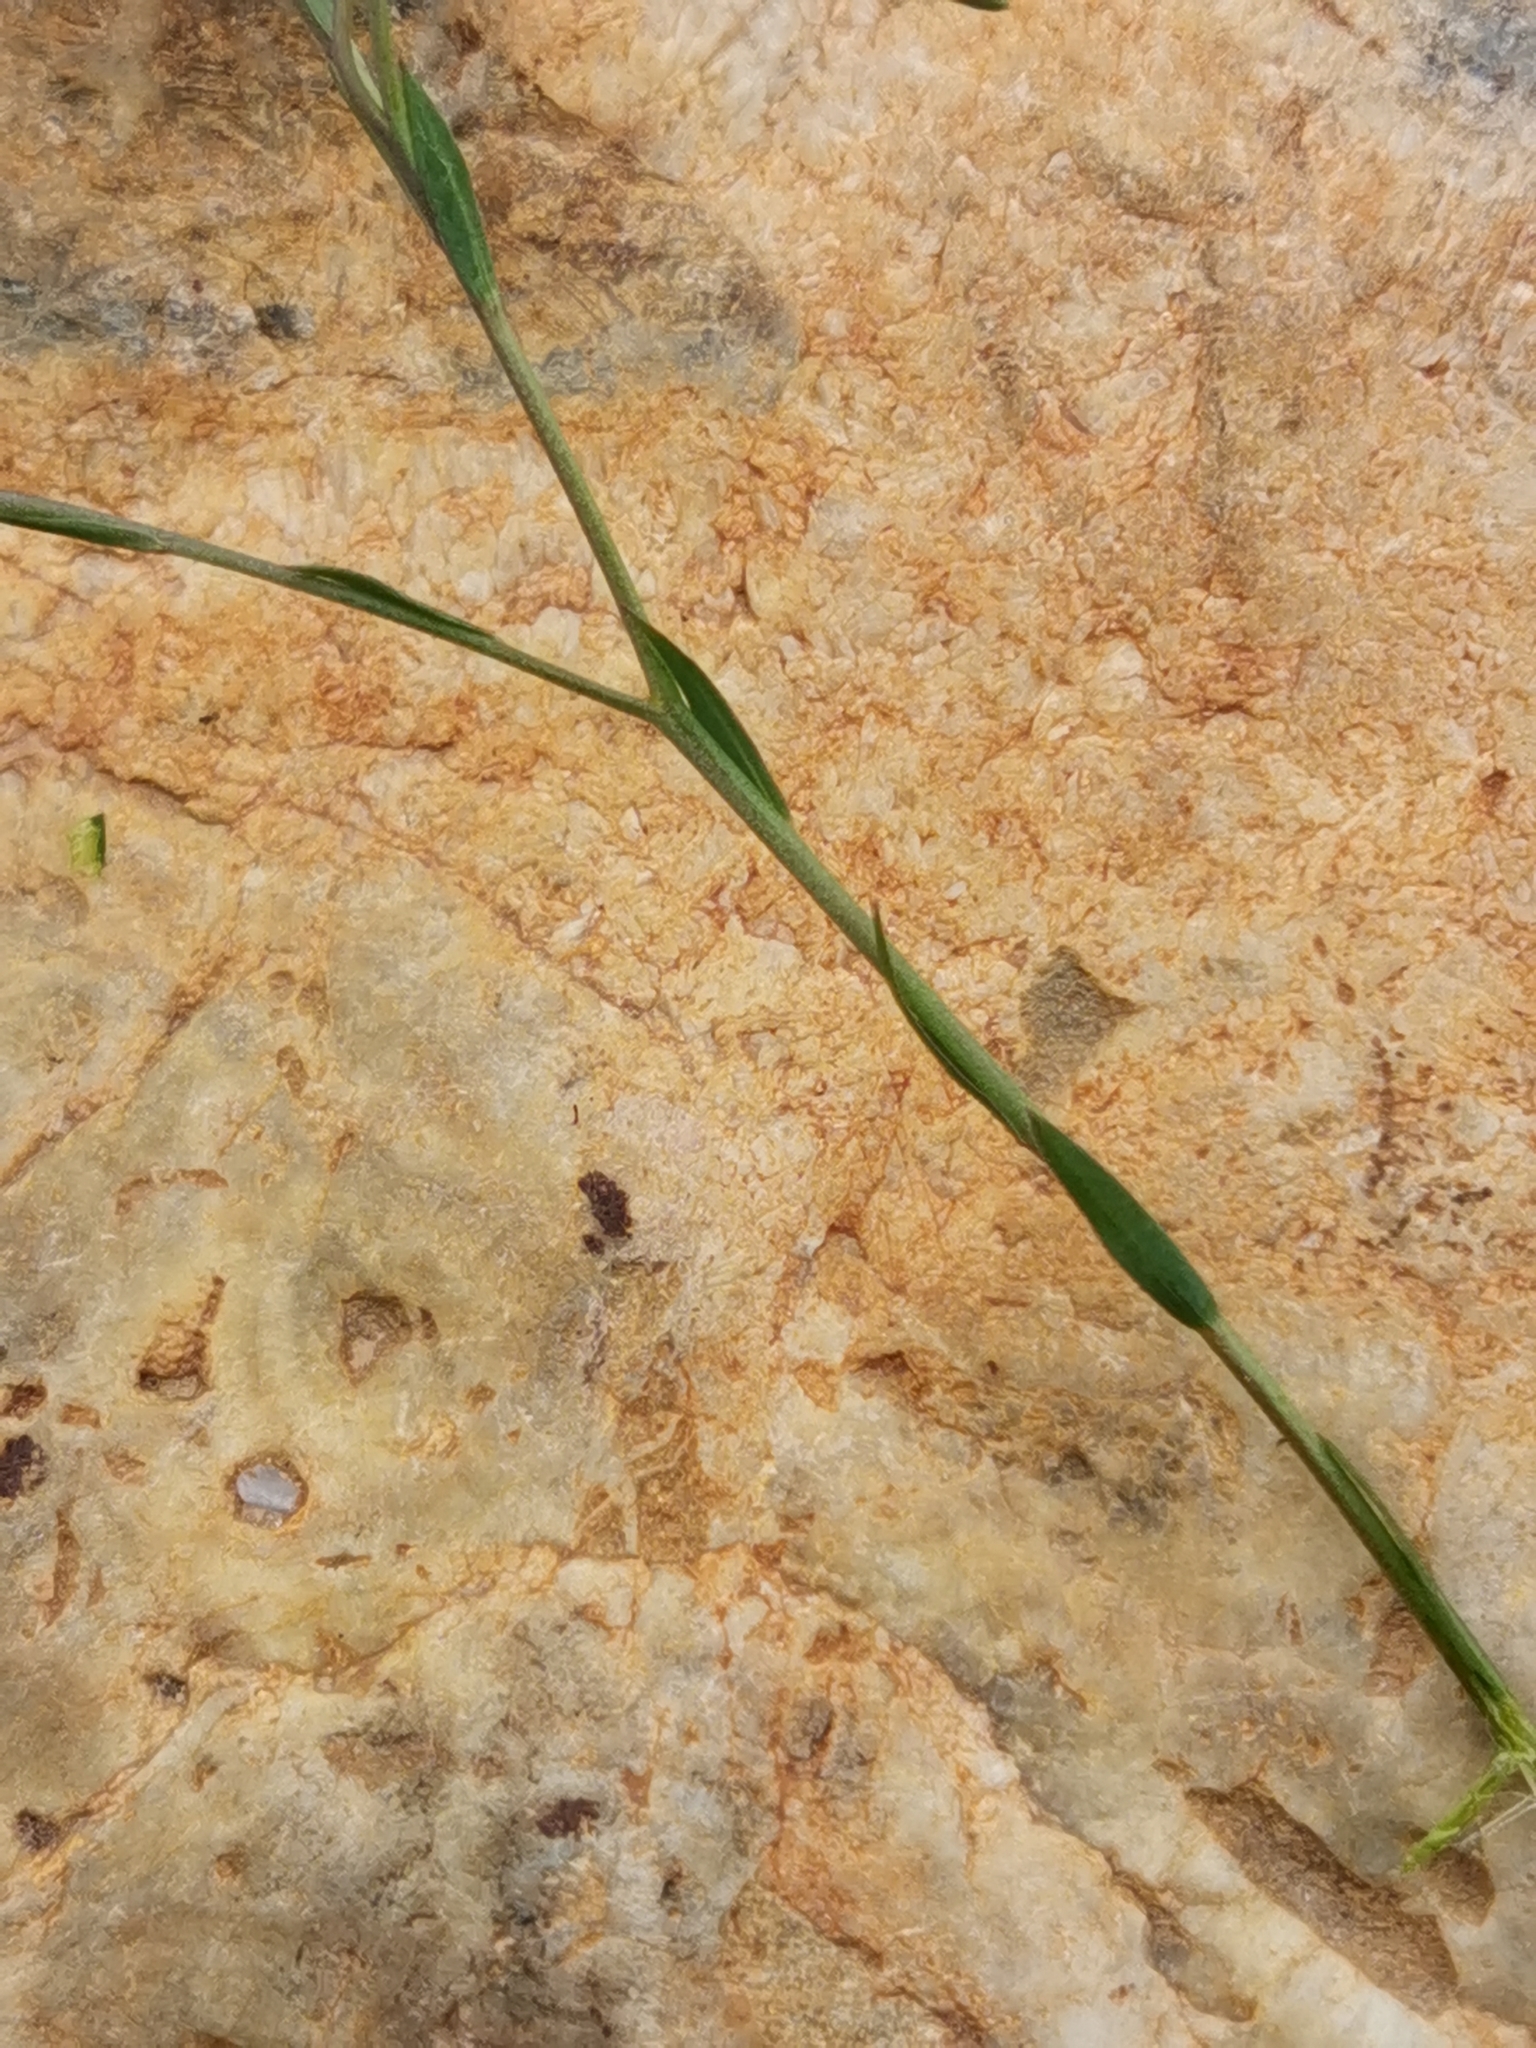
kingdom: Plantae
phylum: Tracheophyta
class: Magnoliopsida
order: Malpighiales
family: Linaceae
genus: Linum
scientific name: Linum narbonense
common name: Flax
